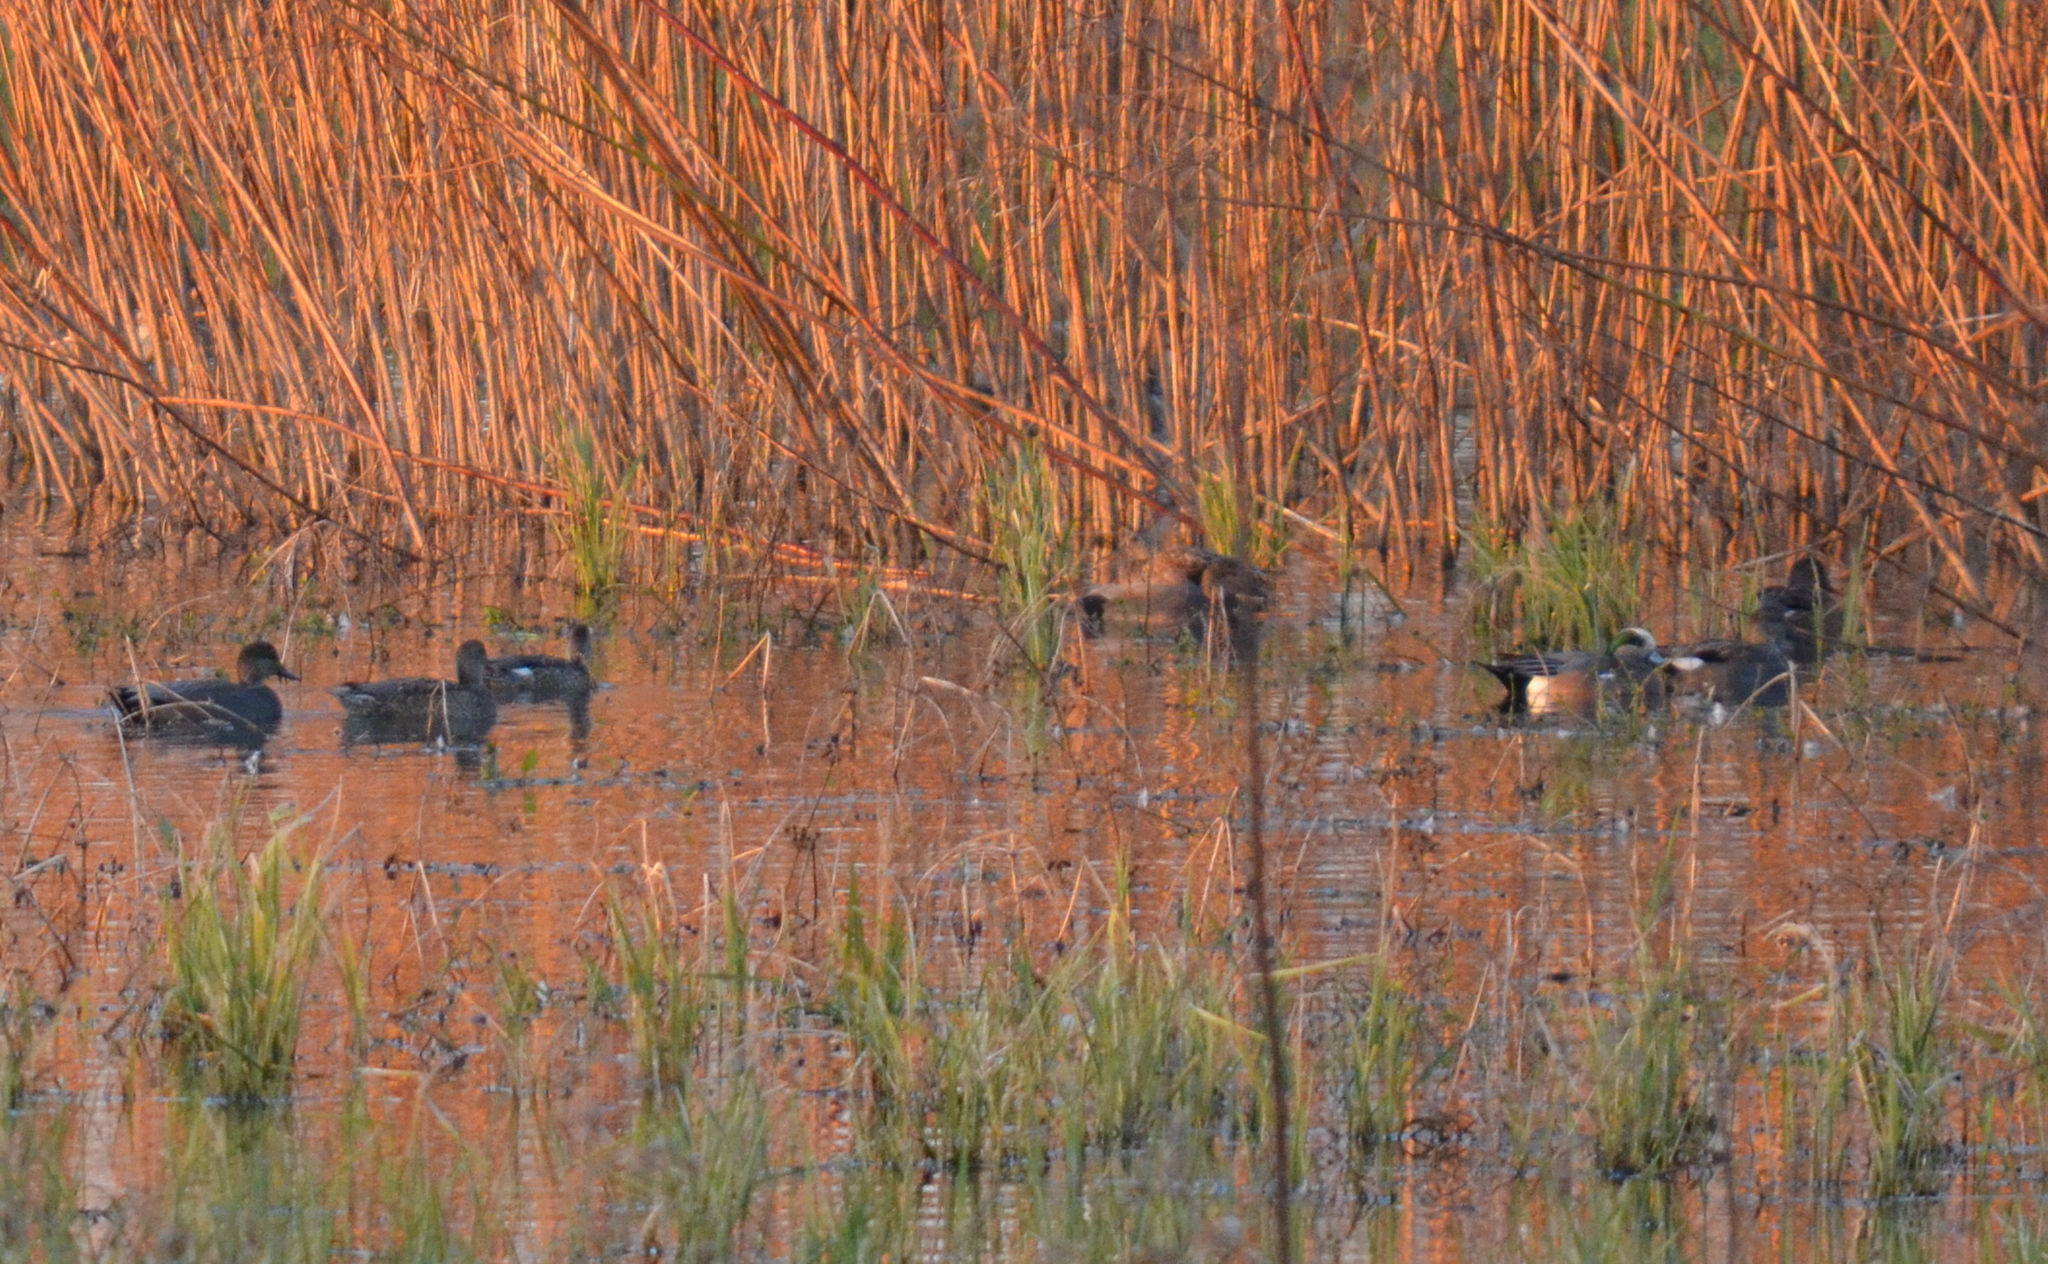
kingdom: Animalia
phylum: Chordata
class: Aves
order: Anseriformes
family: Anatidae
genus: Mareca
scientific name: Mareca americana
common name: American wigeon
